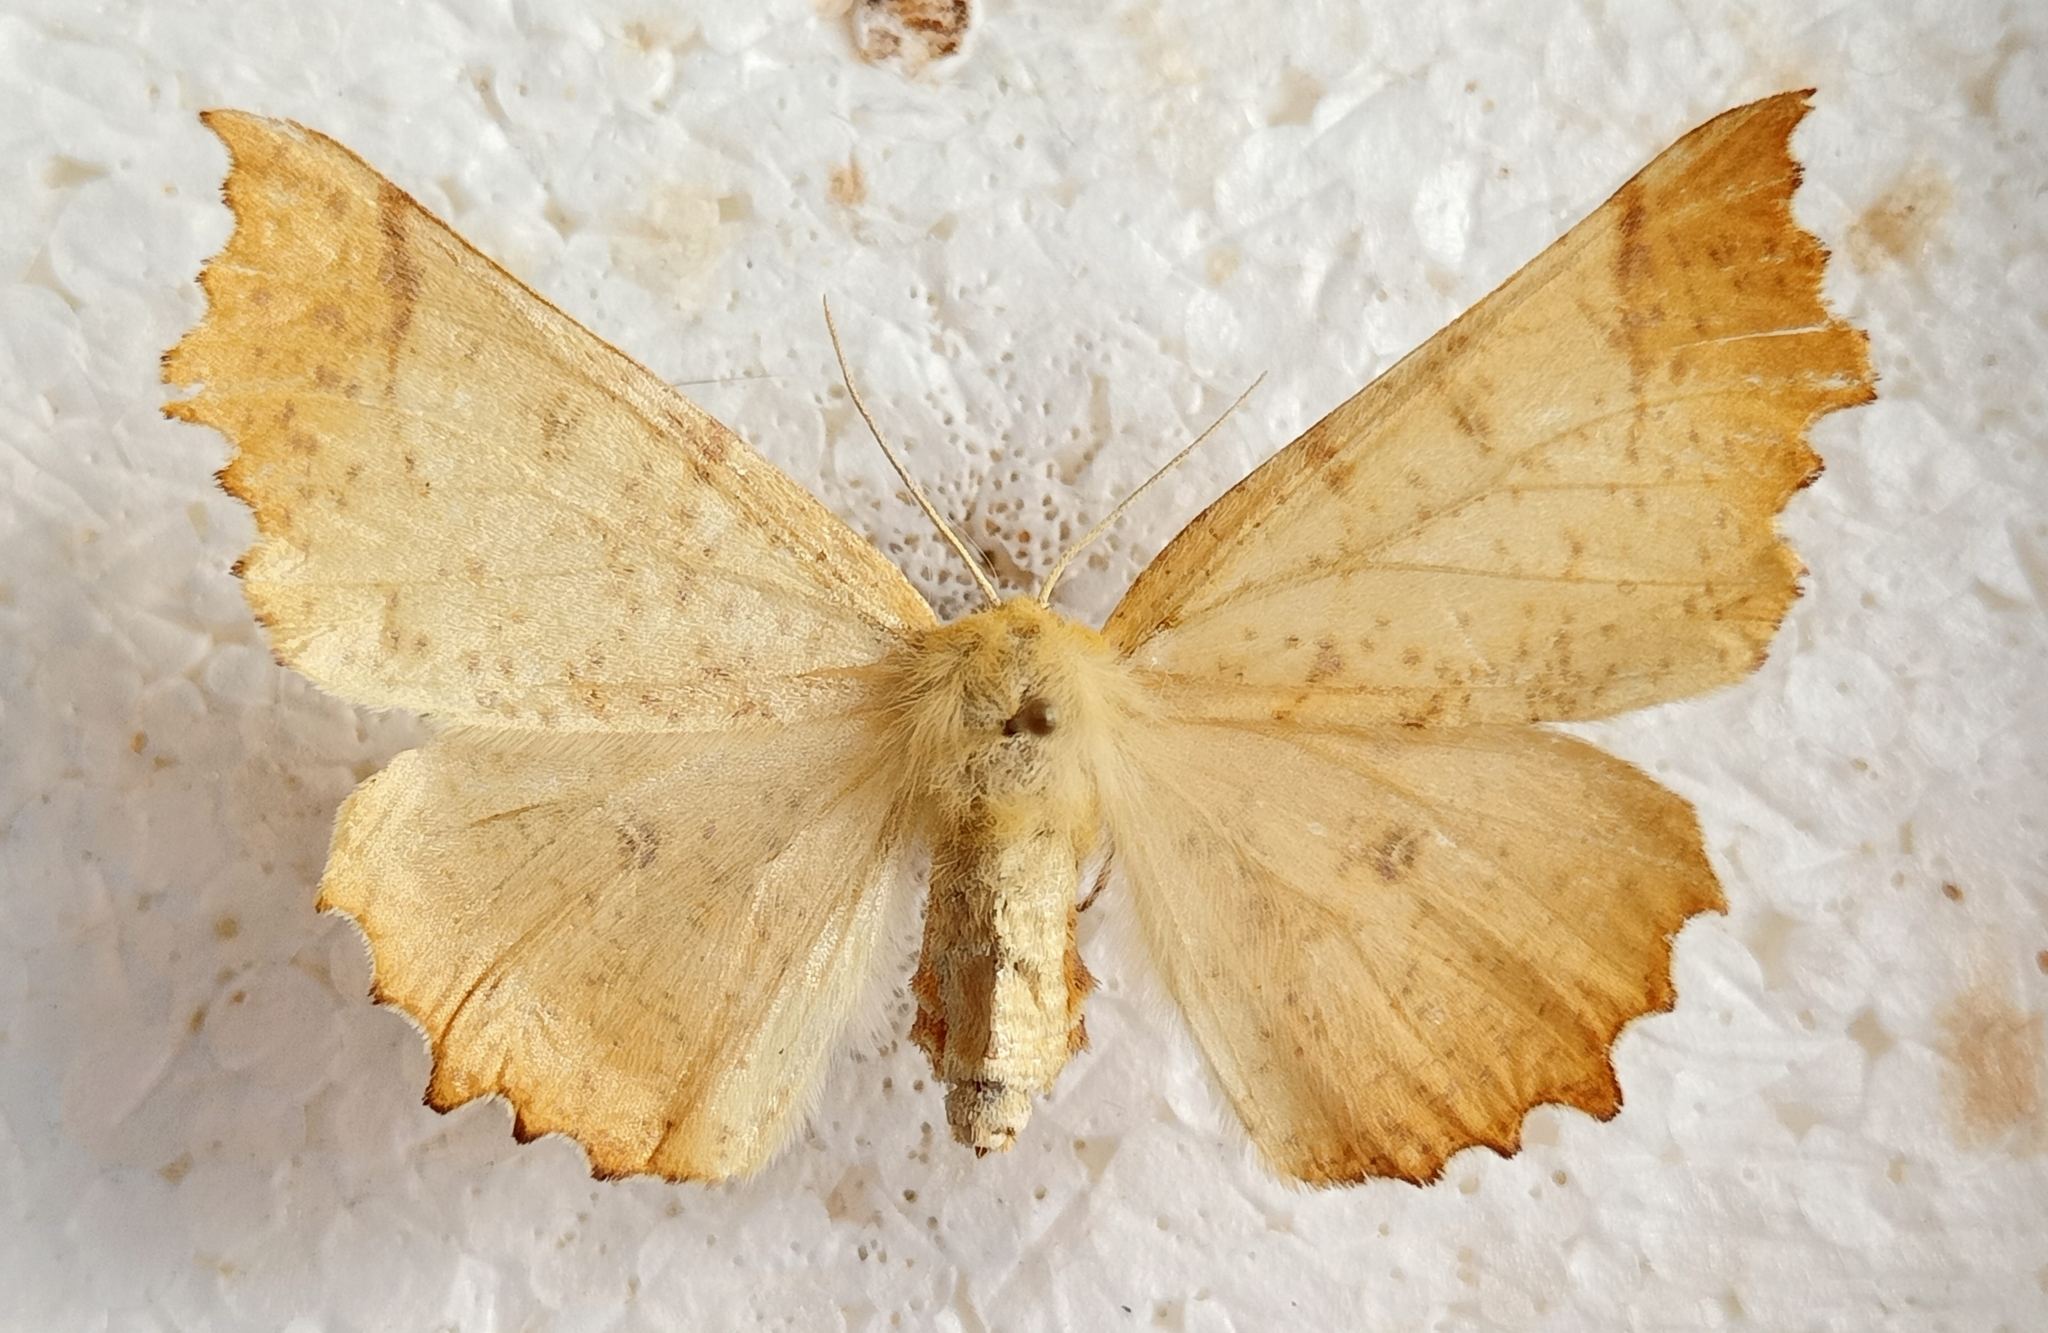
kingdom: Animalia
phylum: Arthropoda
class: Insecta
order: Lepidoptera
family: Geometridae
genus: Ennomos
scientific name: Ennomos autumnaria
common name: Large thorn
